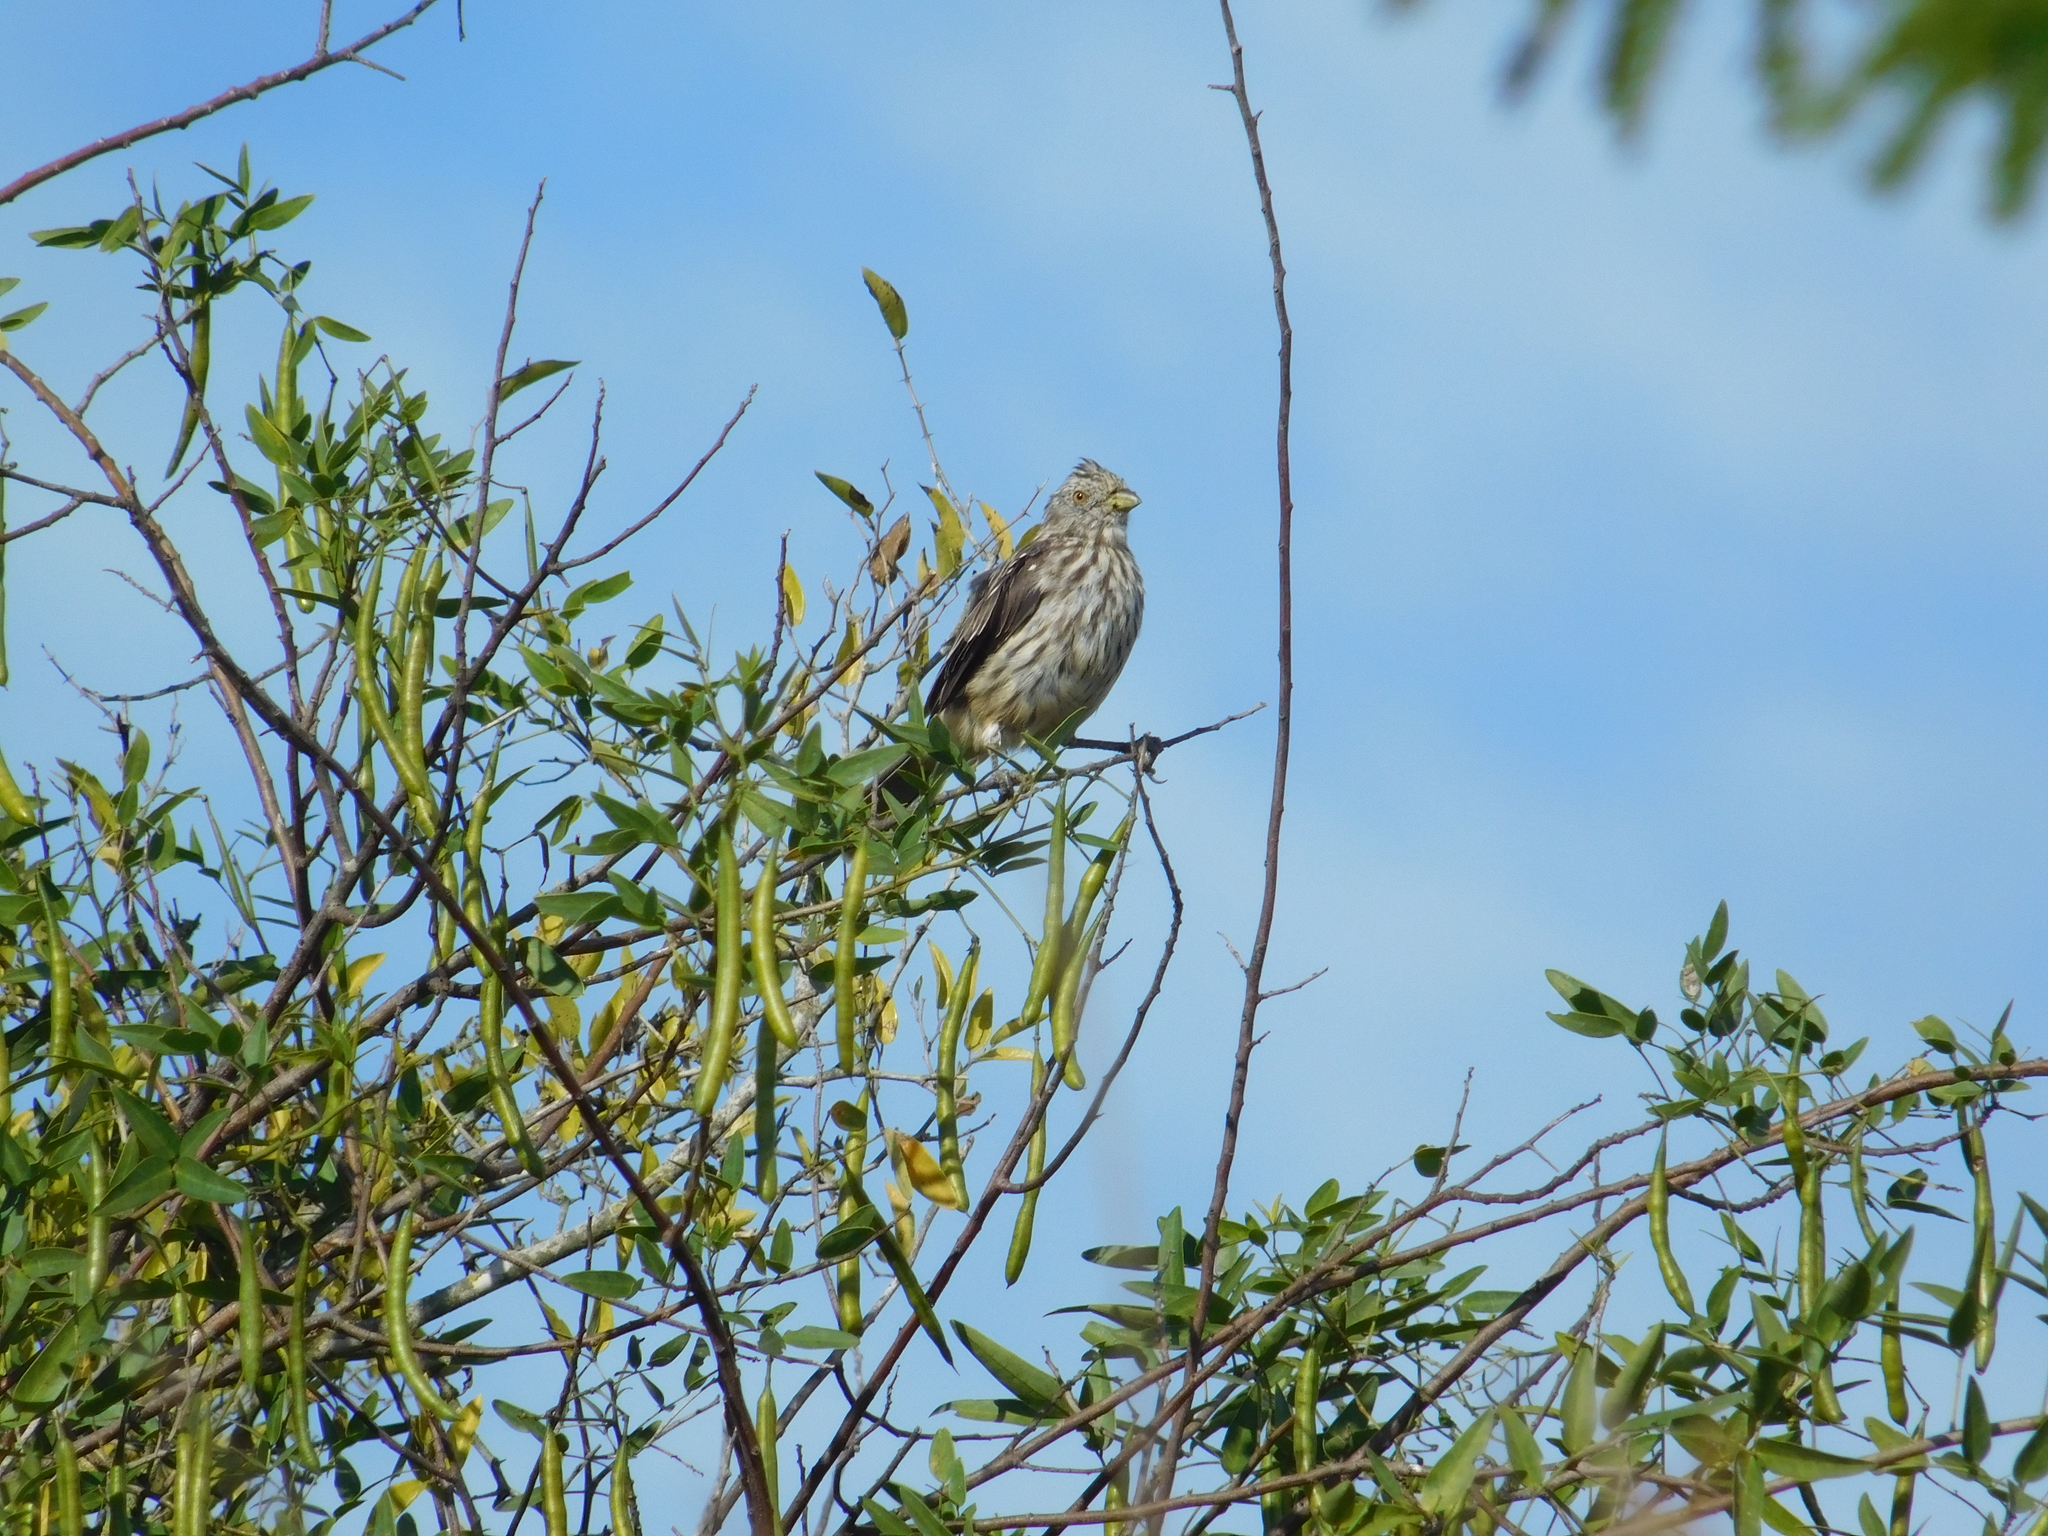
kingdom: Animalia
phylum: Chordata
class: Aves
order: Passeriformes
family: Cotingidae
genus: Phytotoma
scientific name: Phytotoma rutila
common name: White-tipped plantcutter
